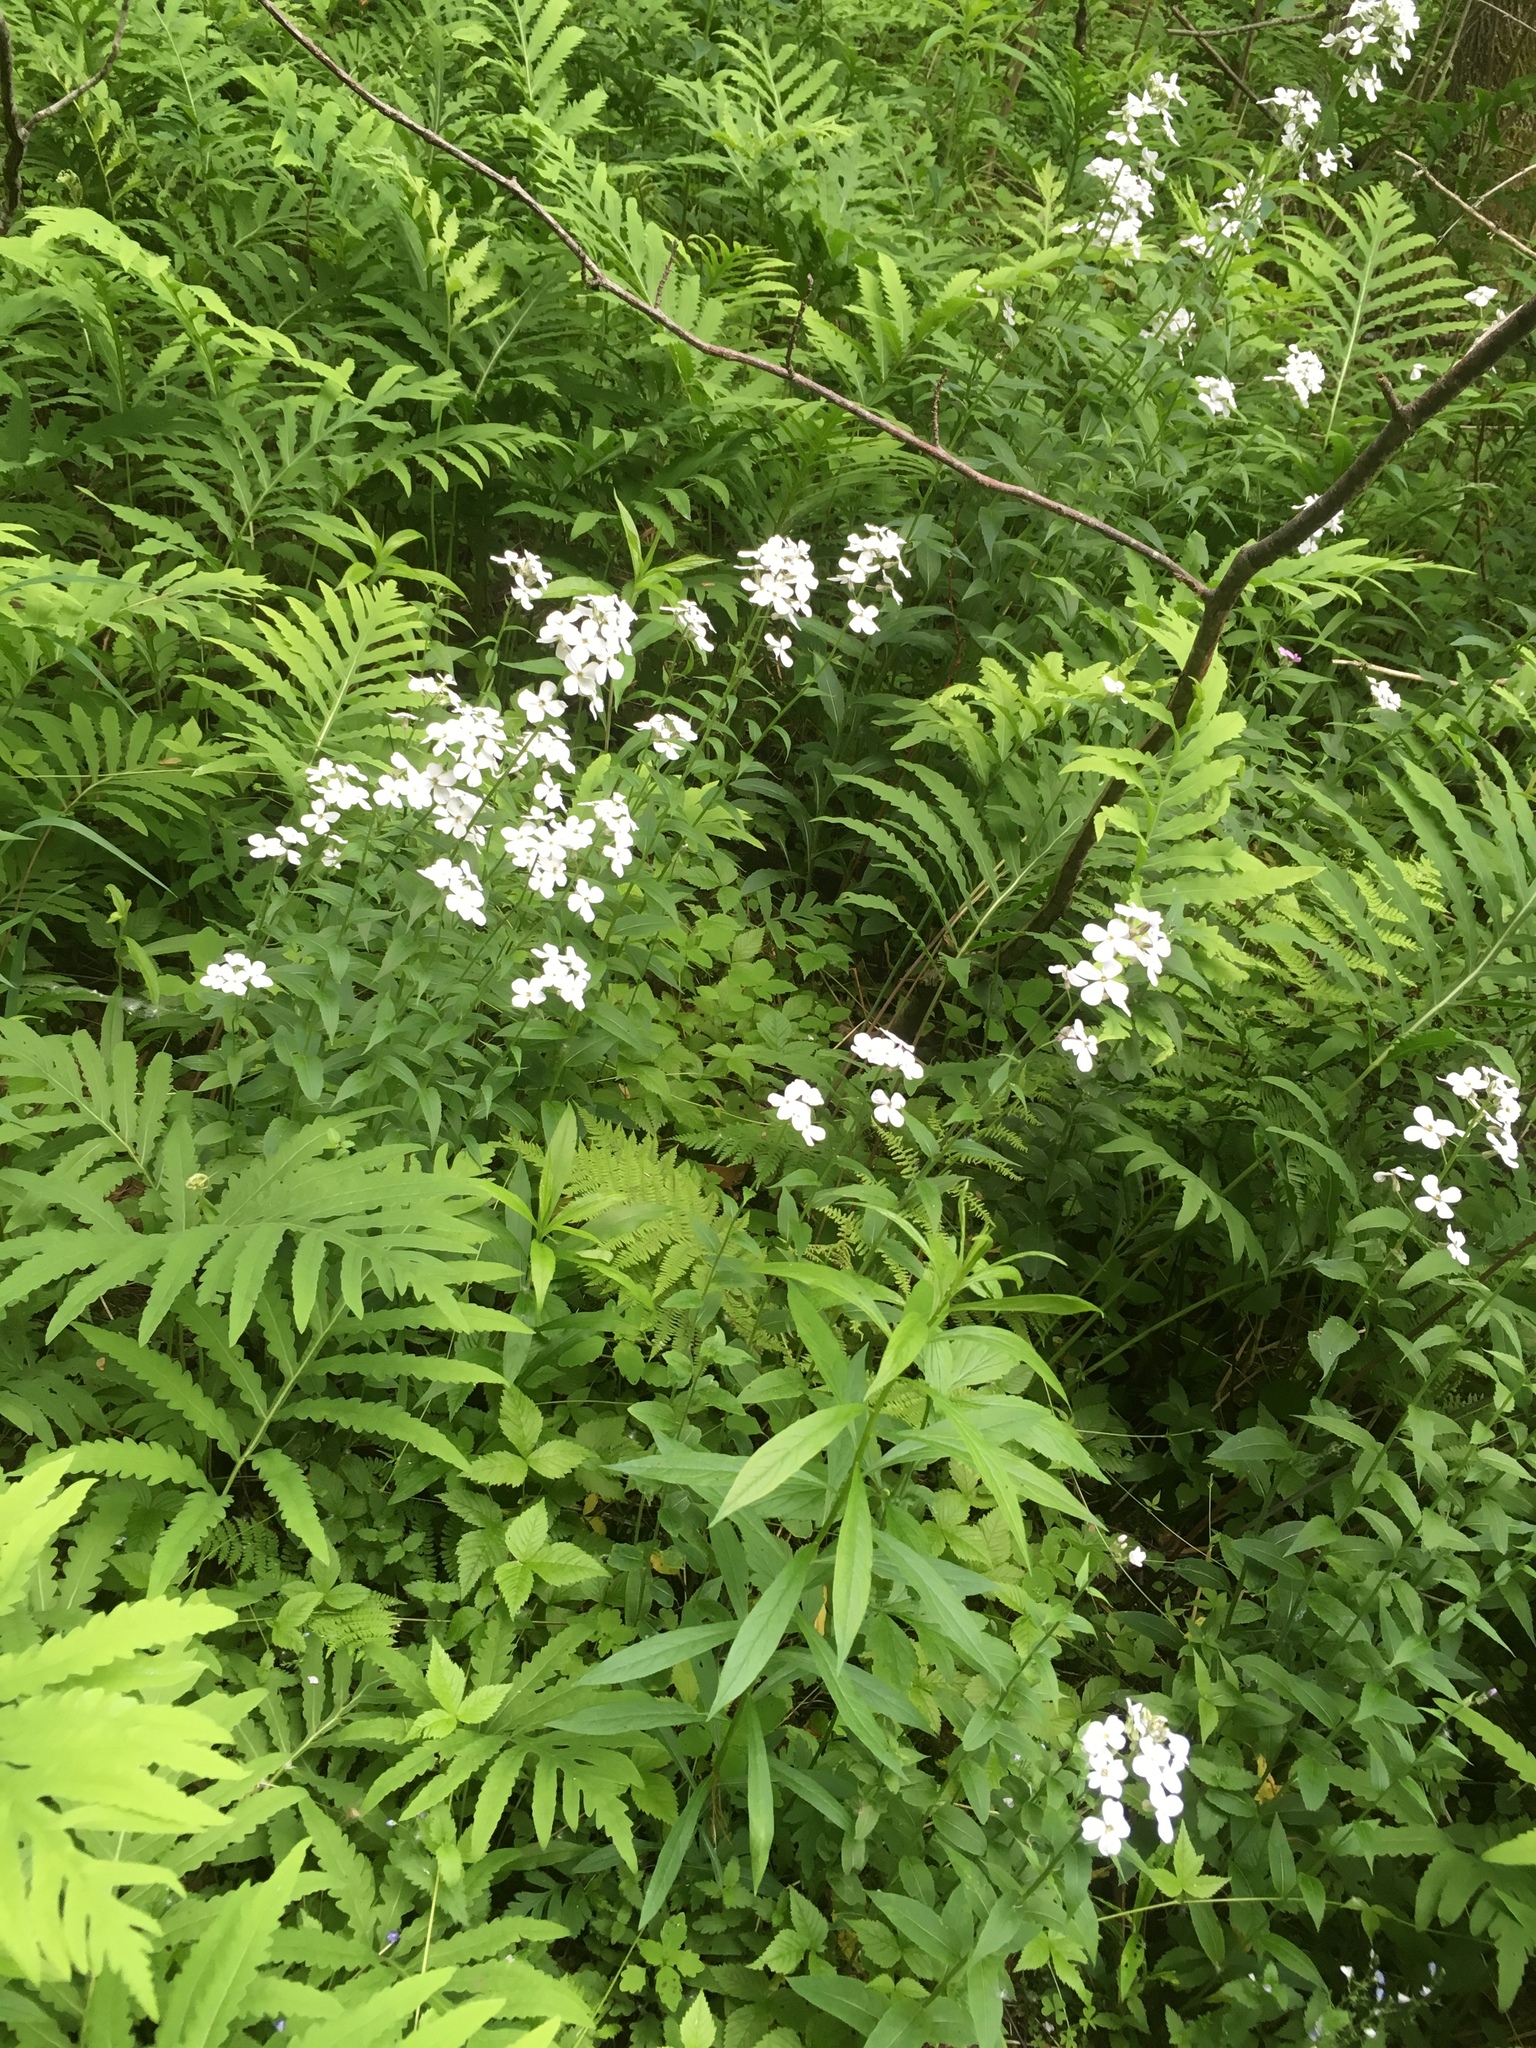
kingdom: Plantae
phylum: Tracheophyta
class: Magnoliopsida
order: Brassicales
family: Brassicaceae
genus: Hesperis
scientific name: Hesperis matronalis
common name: Dame's-violet
